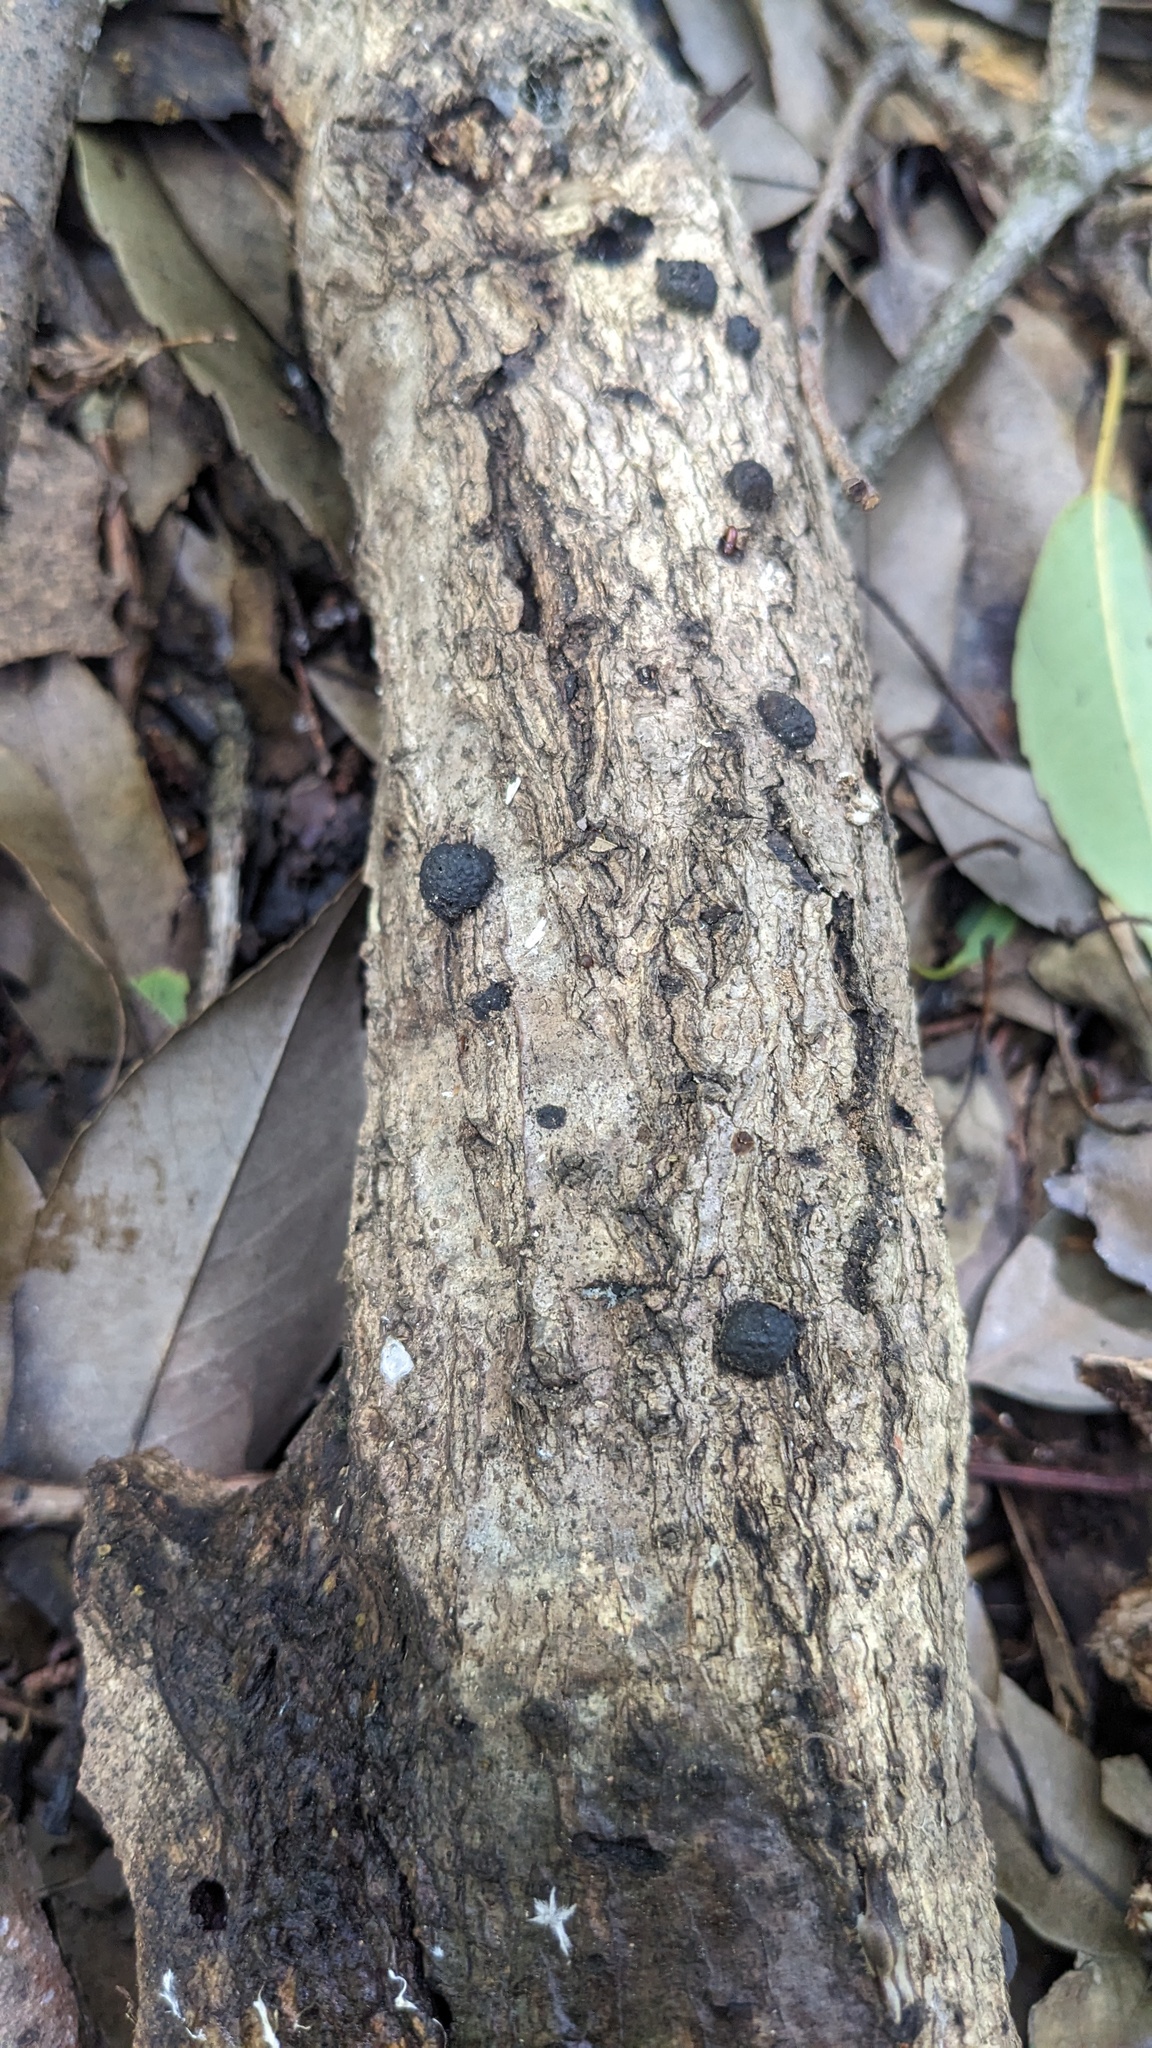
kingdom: Fungi
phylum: Ascomycota
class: Sordariomycetes
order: Xylariales
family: Hypoxylaceae
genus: Annulohypoxylon
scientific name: Annulohypoxylon truncatum
